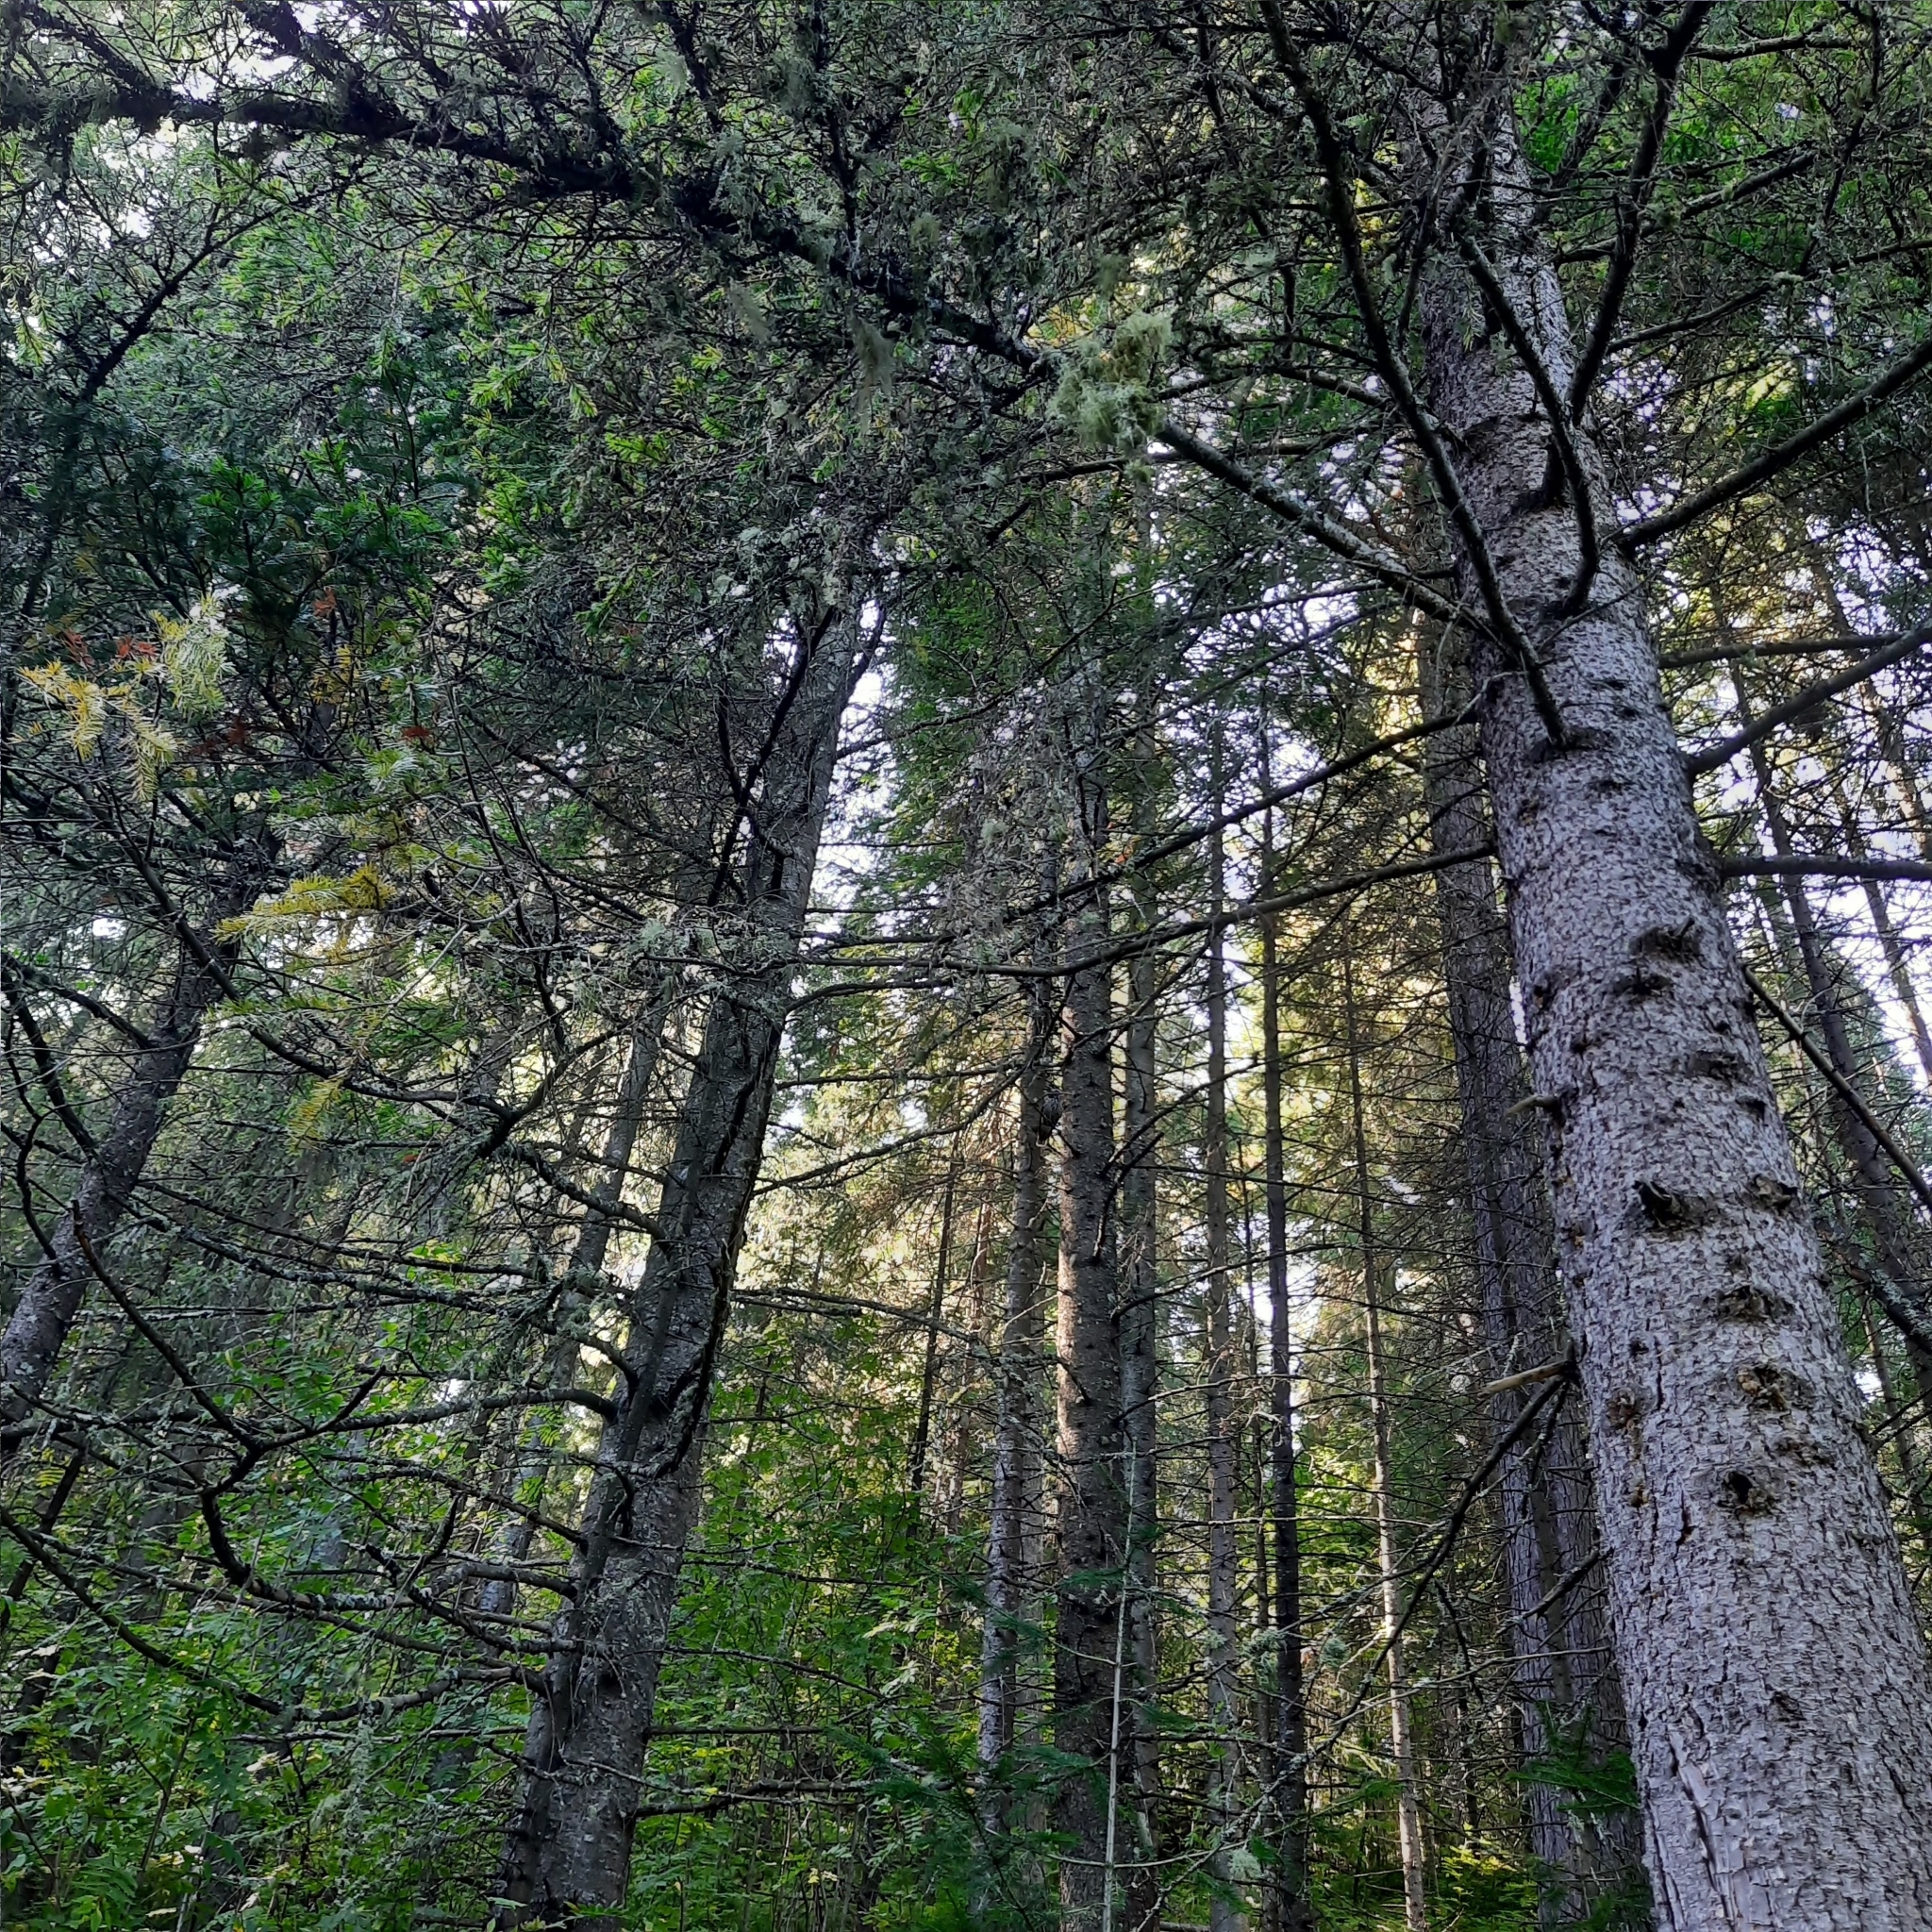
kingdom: Plantae
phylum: Tracheophyta
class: Pinopsida
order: Pinales
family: Pinaceae
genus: Picea
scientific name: Picea obovata
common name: Siberian spruce
